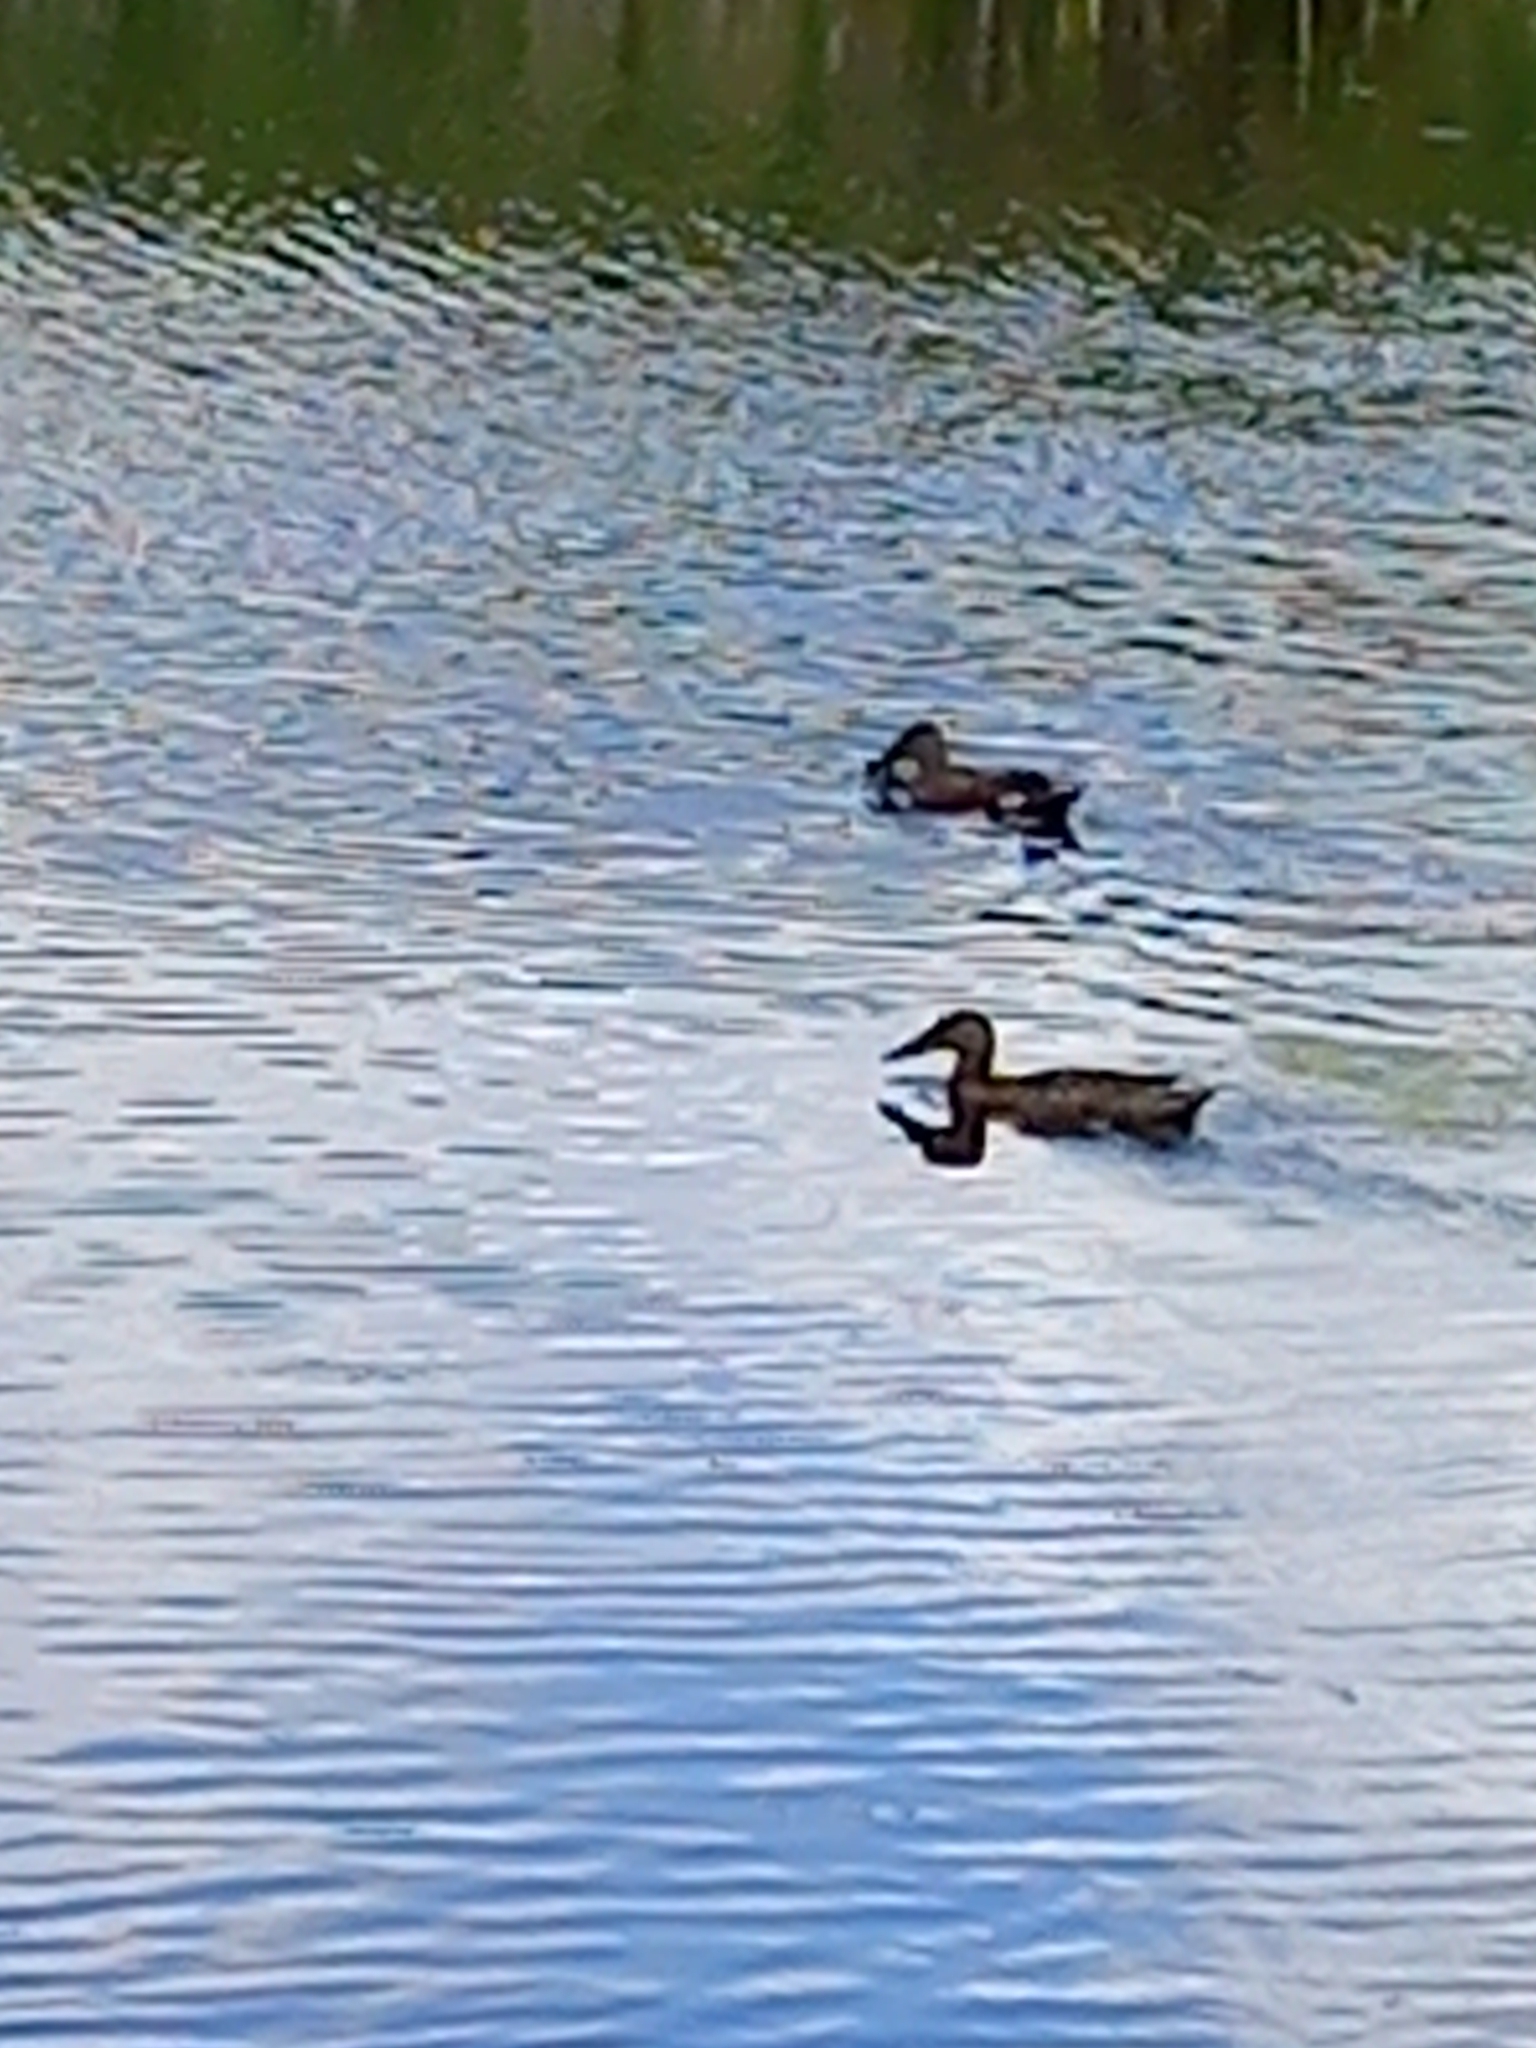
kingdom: Animalia
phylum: Chordata
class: Aves
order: Anseriformes
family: Anatidae
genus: Spatula
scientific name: Spatula rhynchotis
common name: Australian shoveler
